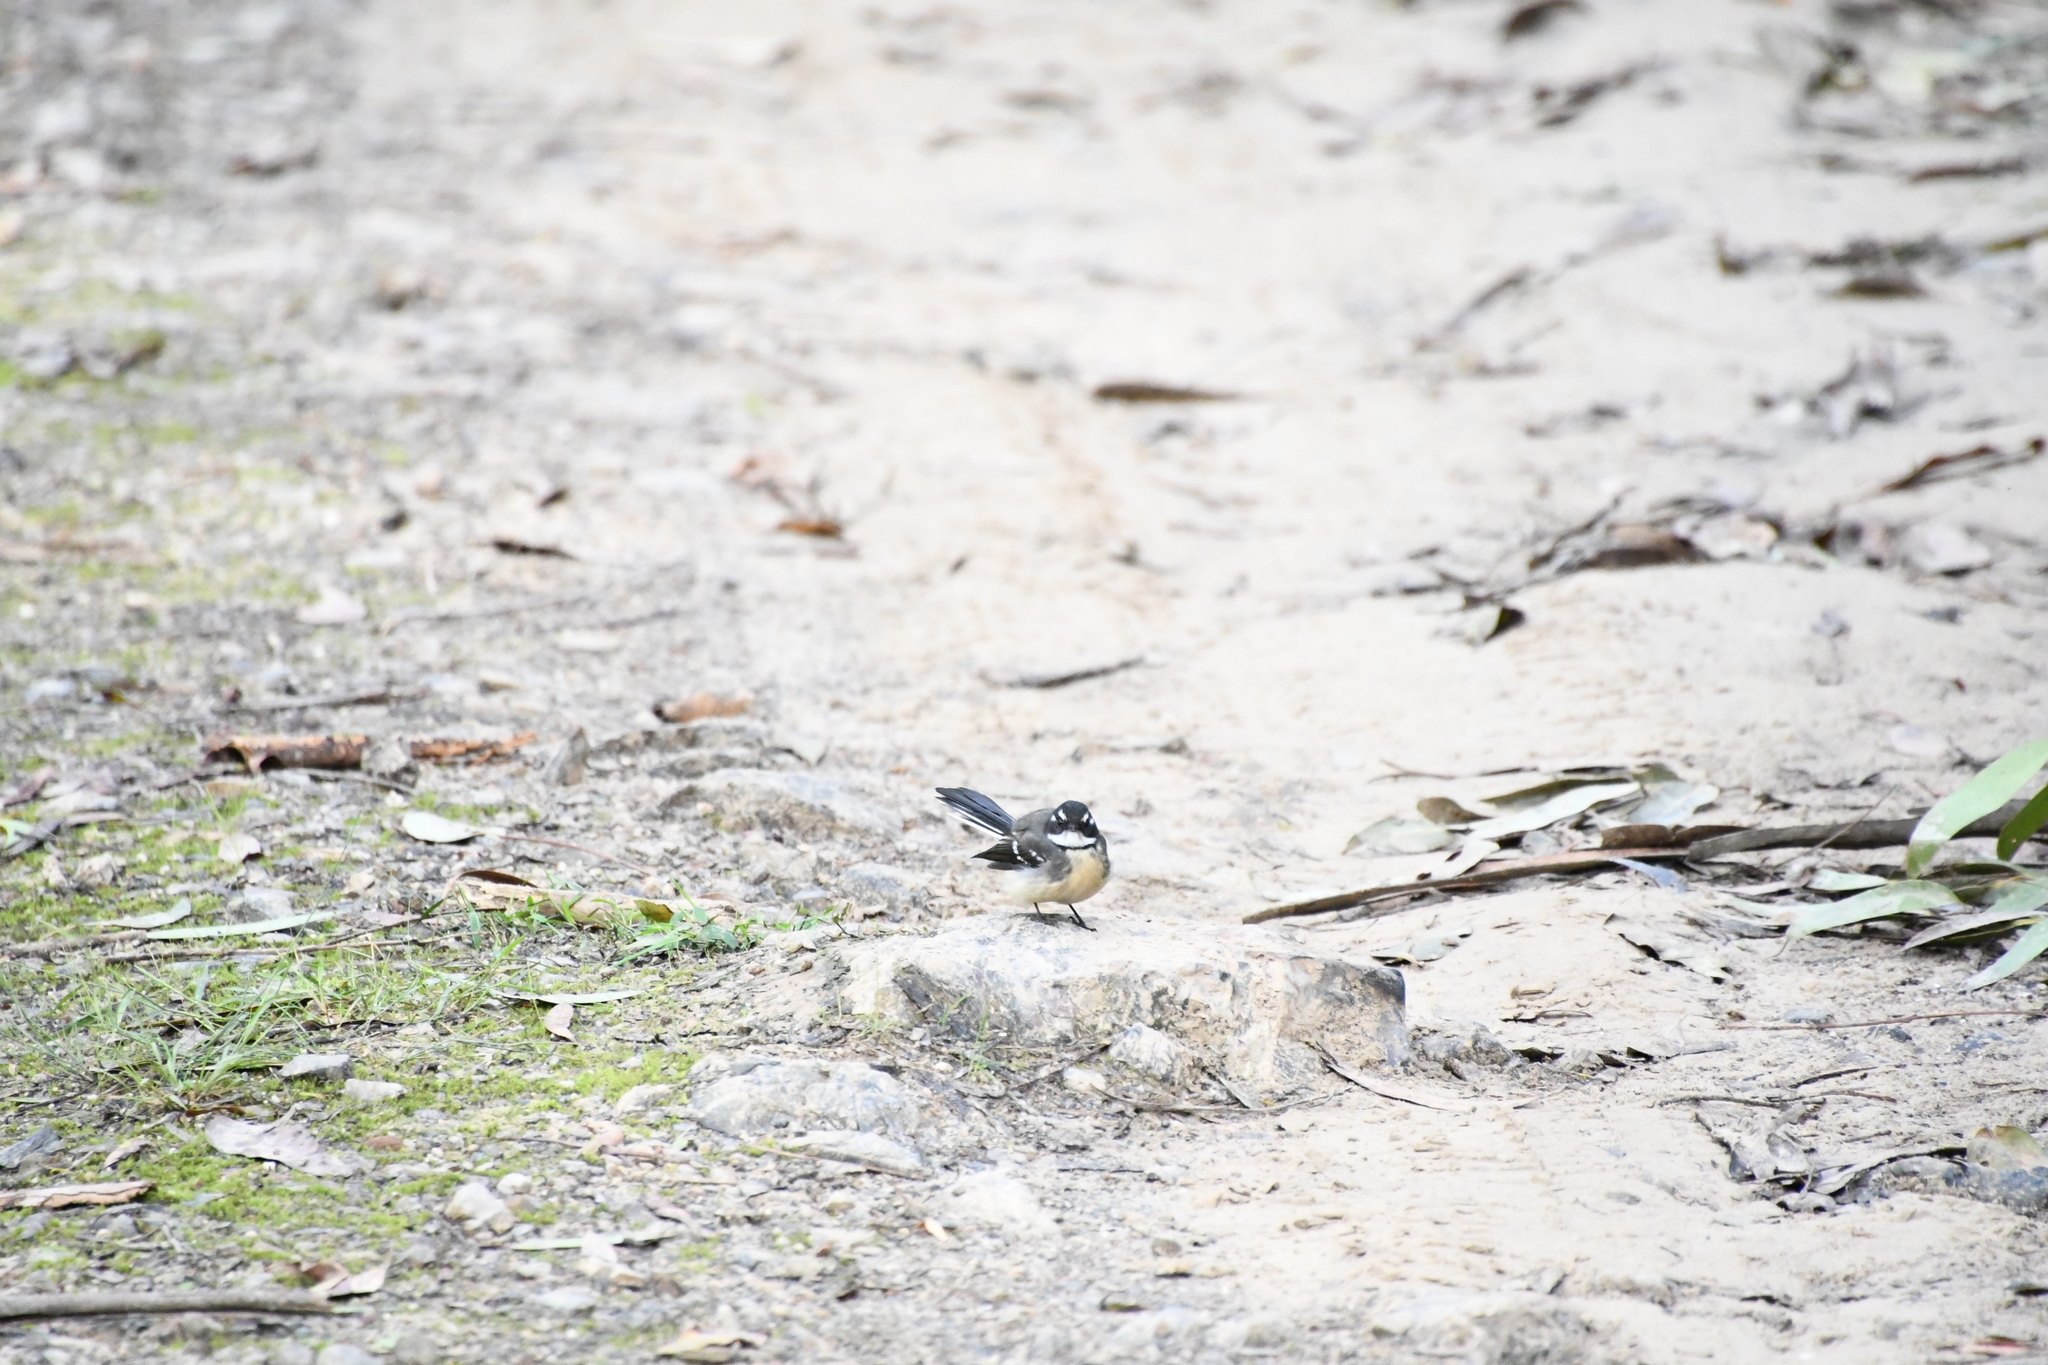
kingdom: Animalia
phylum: Chordata
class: Aves
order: Passeriformes
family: Rhipiduridae
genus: Rhipidura
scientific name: Rhipidura albiscapa
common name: Grey fantail
